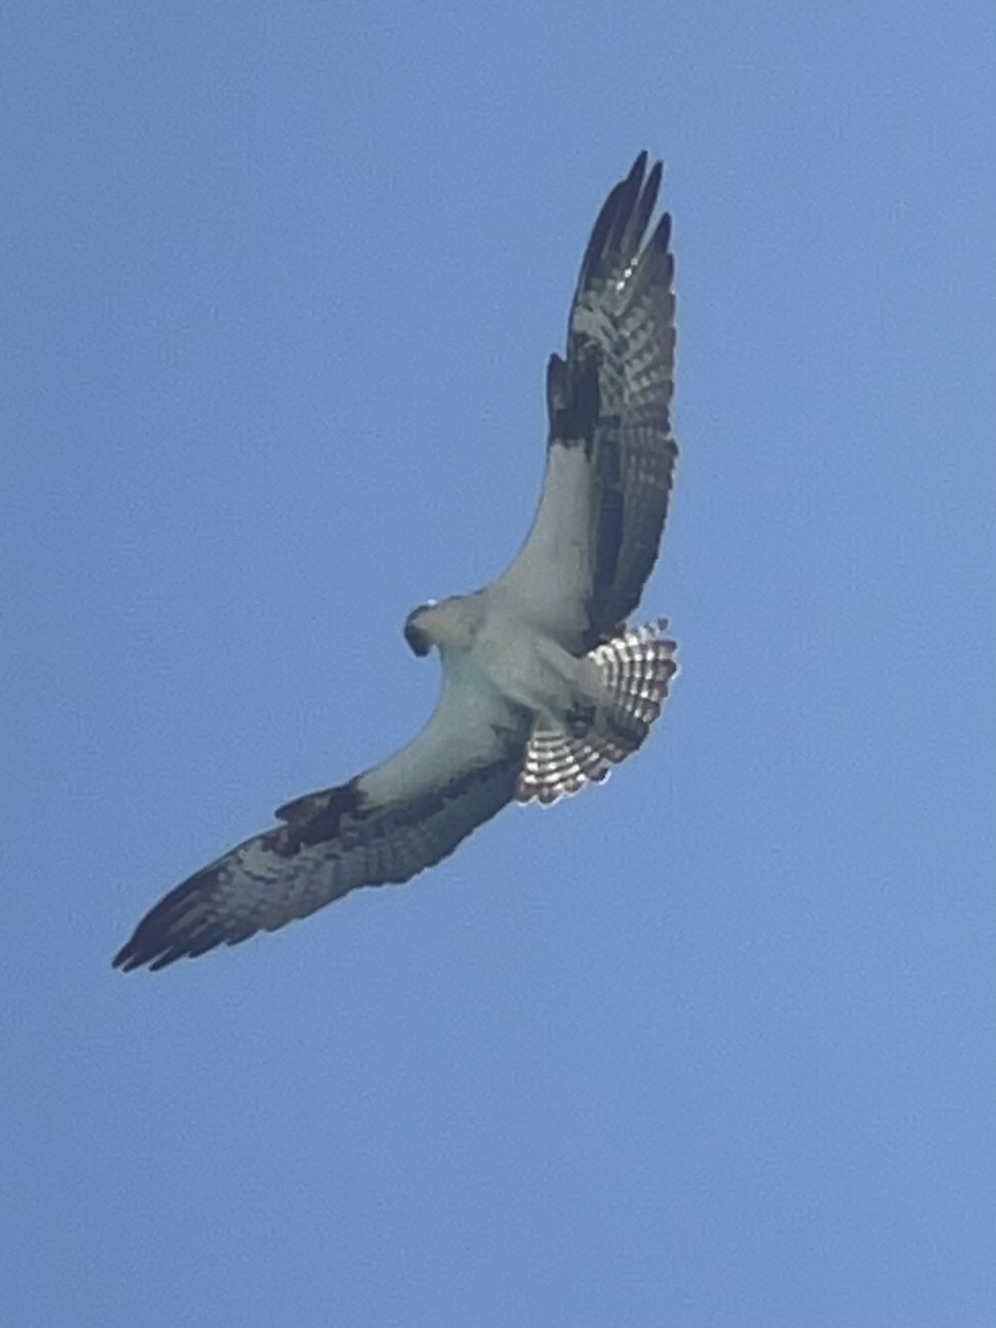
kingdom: Animalia
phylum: Chordata
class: Aves
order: Accipitriformes
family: Pandionidae
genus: Pandion
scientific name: Pandion haliaetus
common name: Osprey
